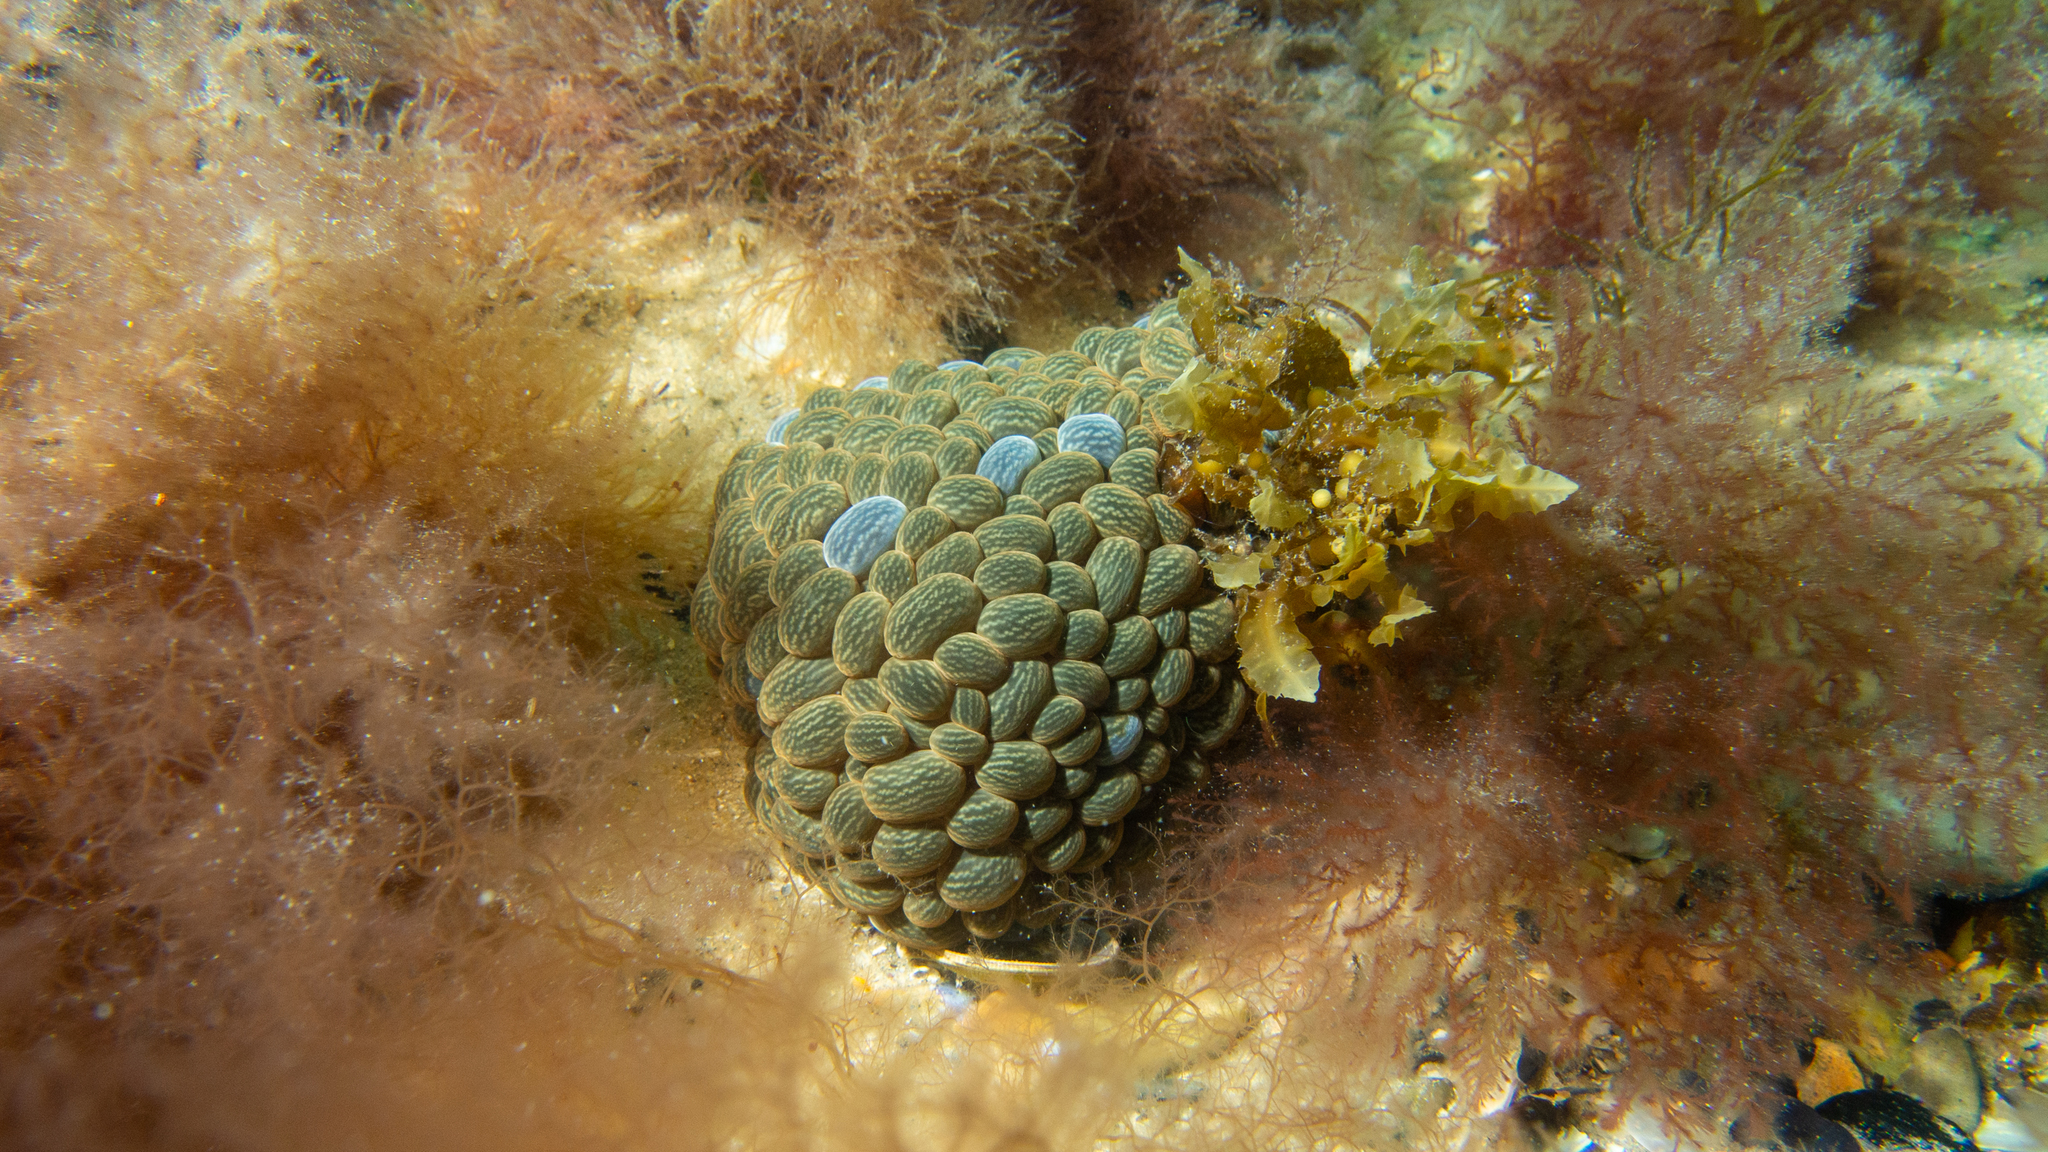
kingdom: Animalia
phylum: Cnidaria
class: Anthozoa
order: Actiniaria
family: Actiniidae
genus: Phlyctenactis
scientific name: Phlyctenactis tuberculosa
